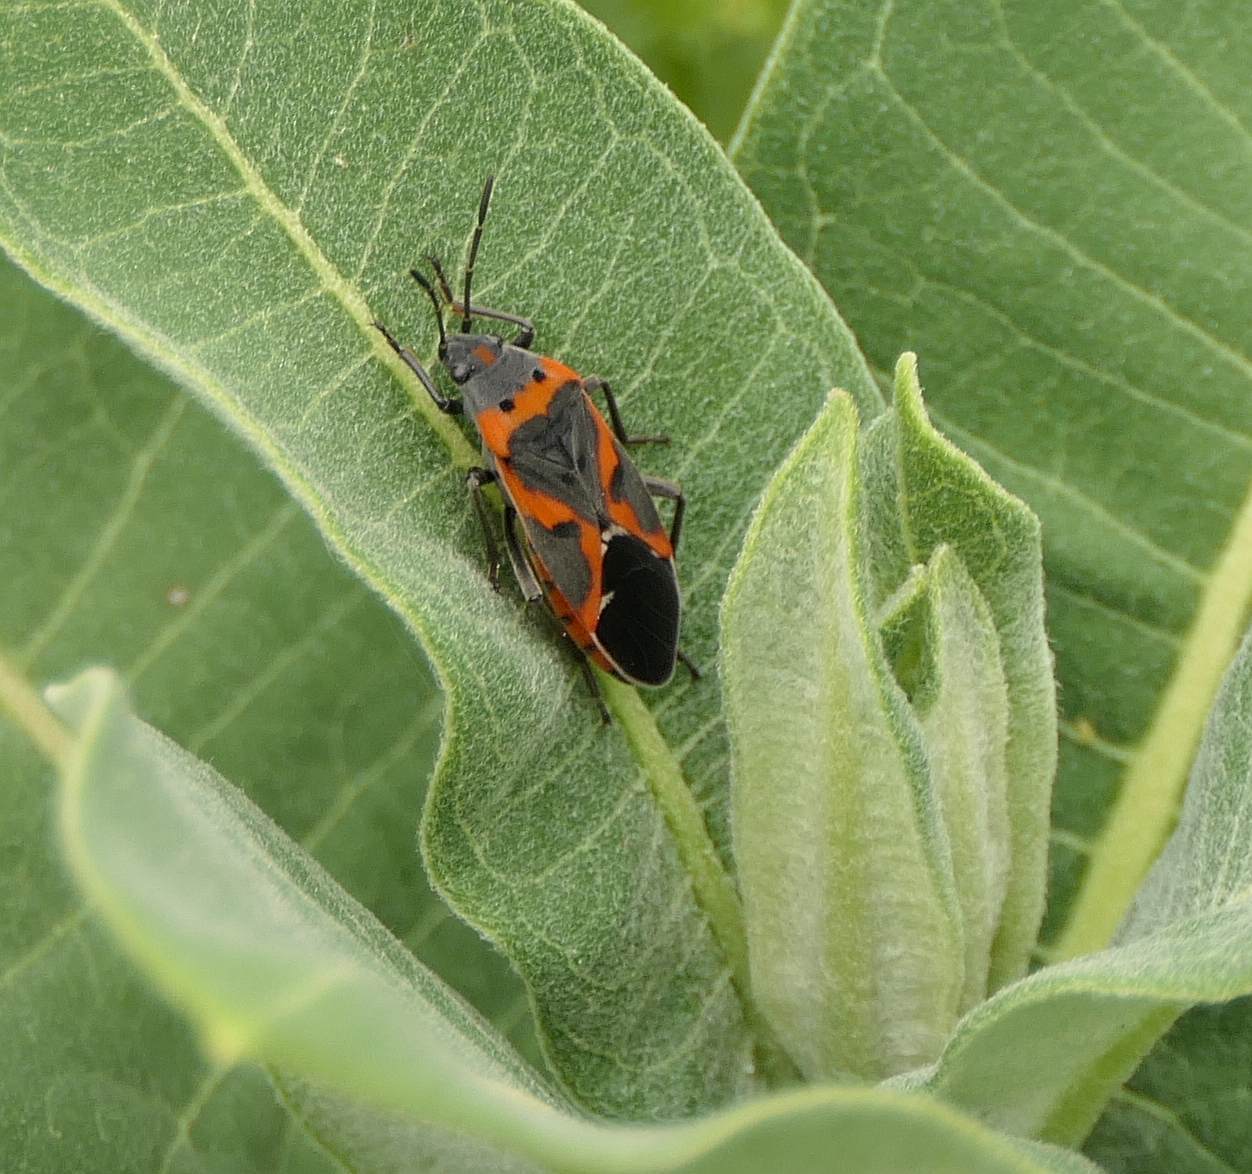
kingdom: Animalia
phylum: Arthropoda
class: Insecta
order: Hemiptera
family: Lygaeidae
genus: Lygaeus
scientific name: Lygaeus kalmii
